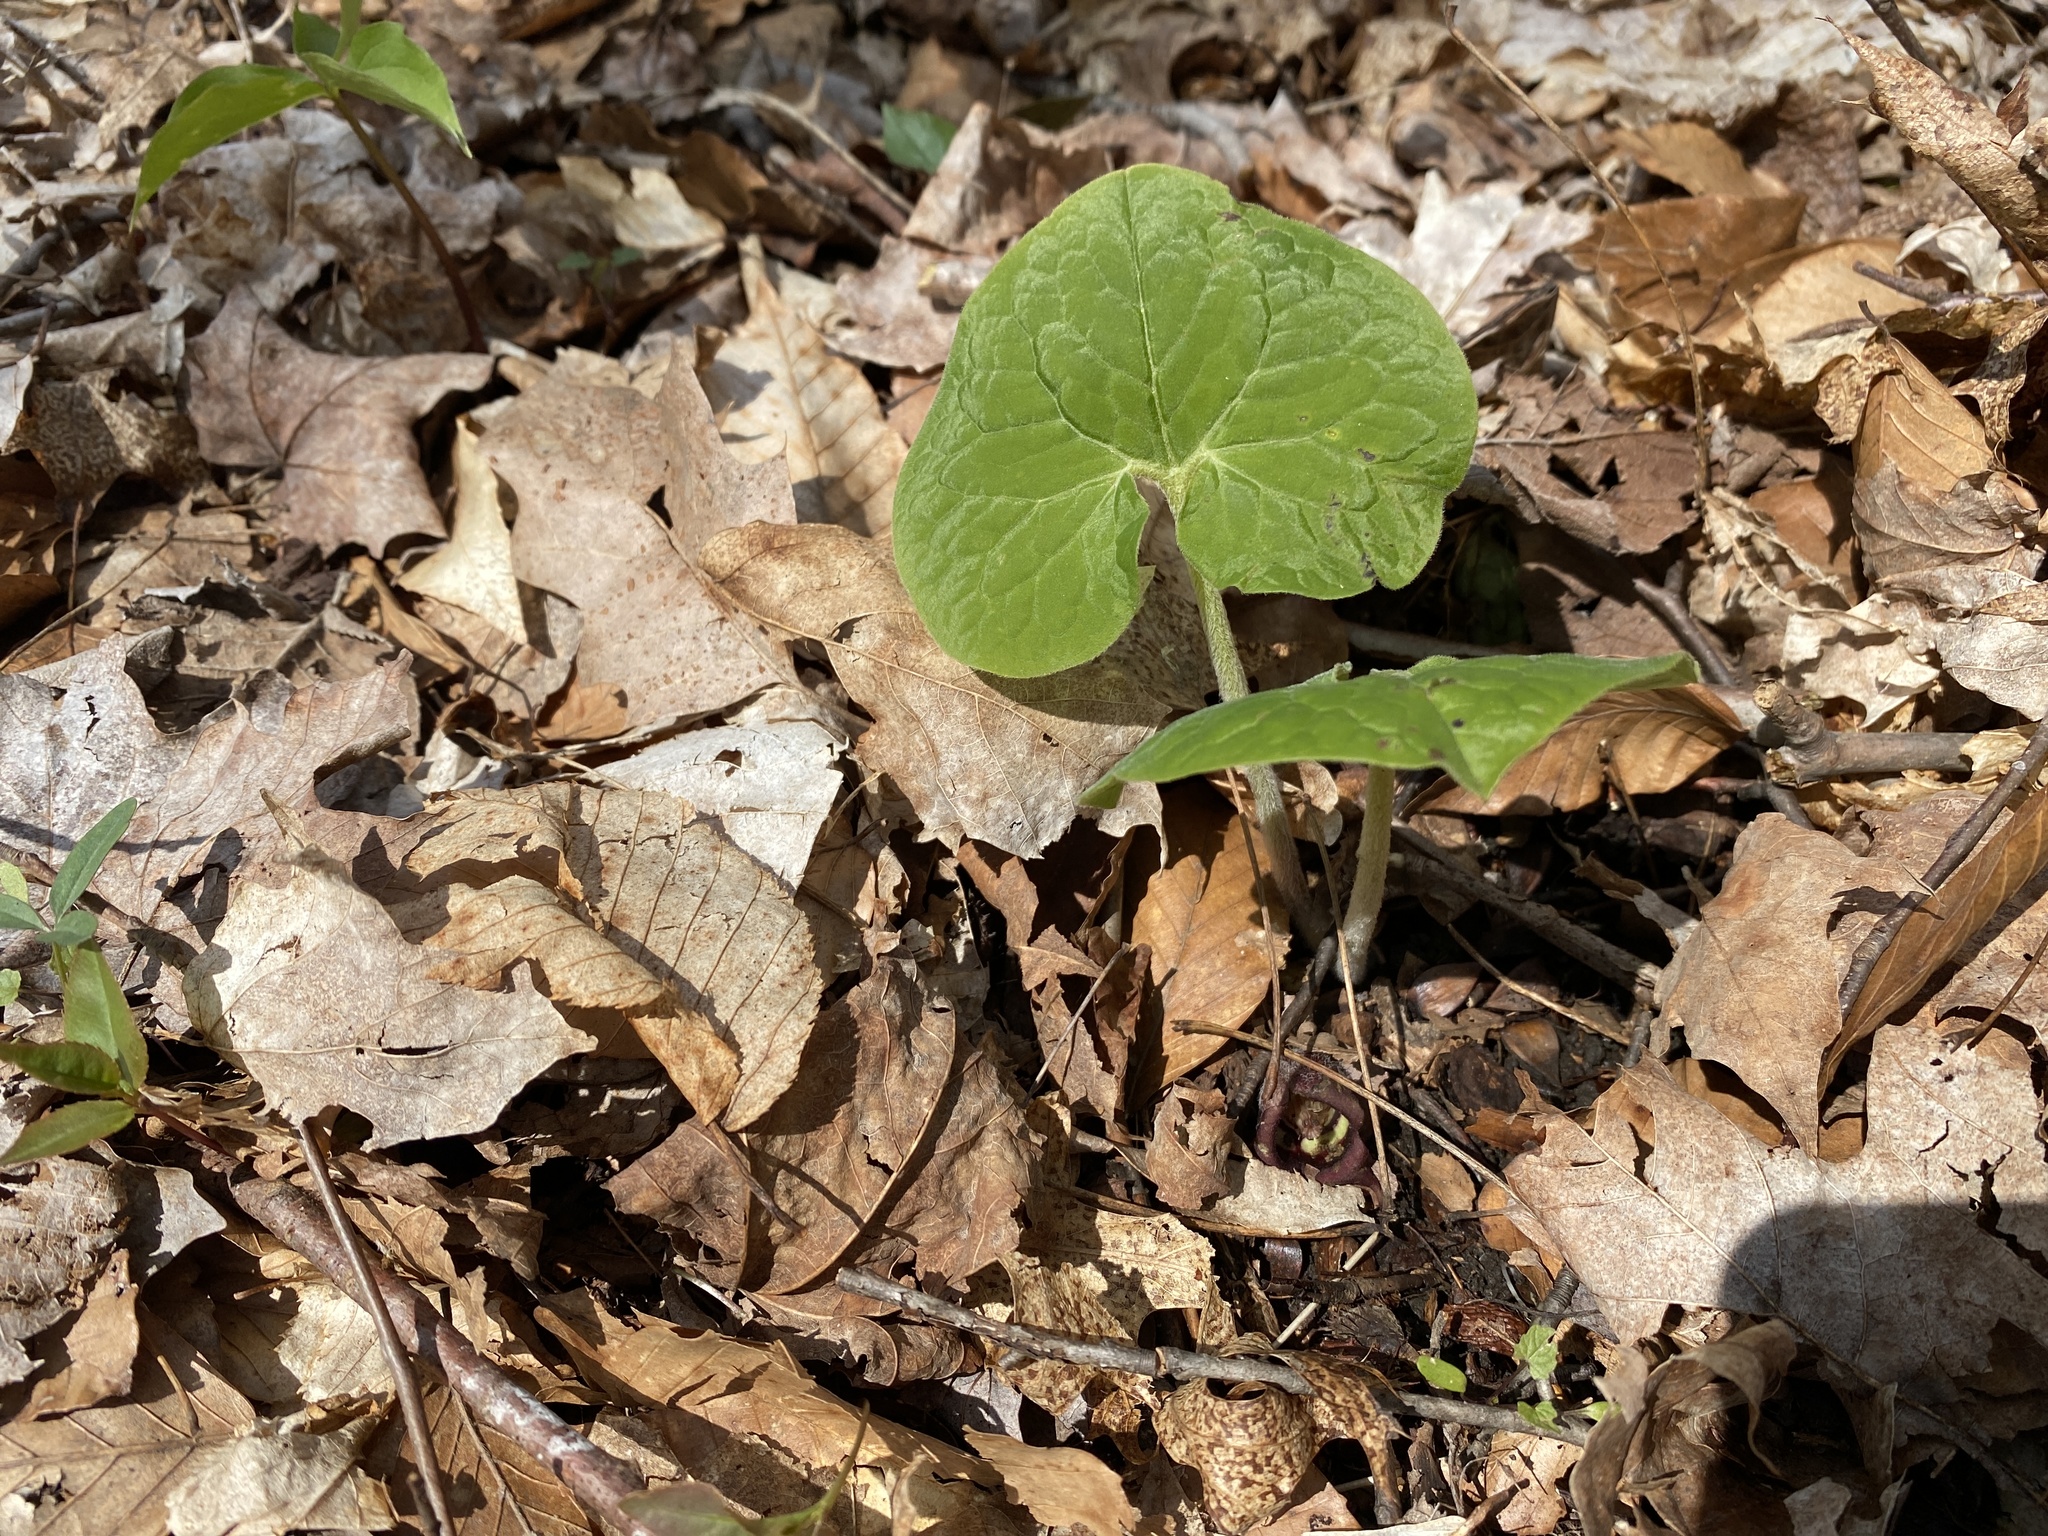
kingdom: Plantae
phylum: Tracheophyta
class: Magnoliopsida
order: Piperales
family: Aristolochiaceae
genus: Asarum
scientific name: Asarum canadense
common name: Wild ginger
